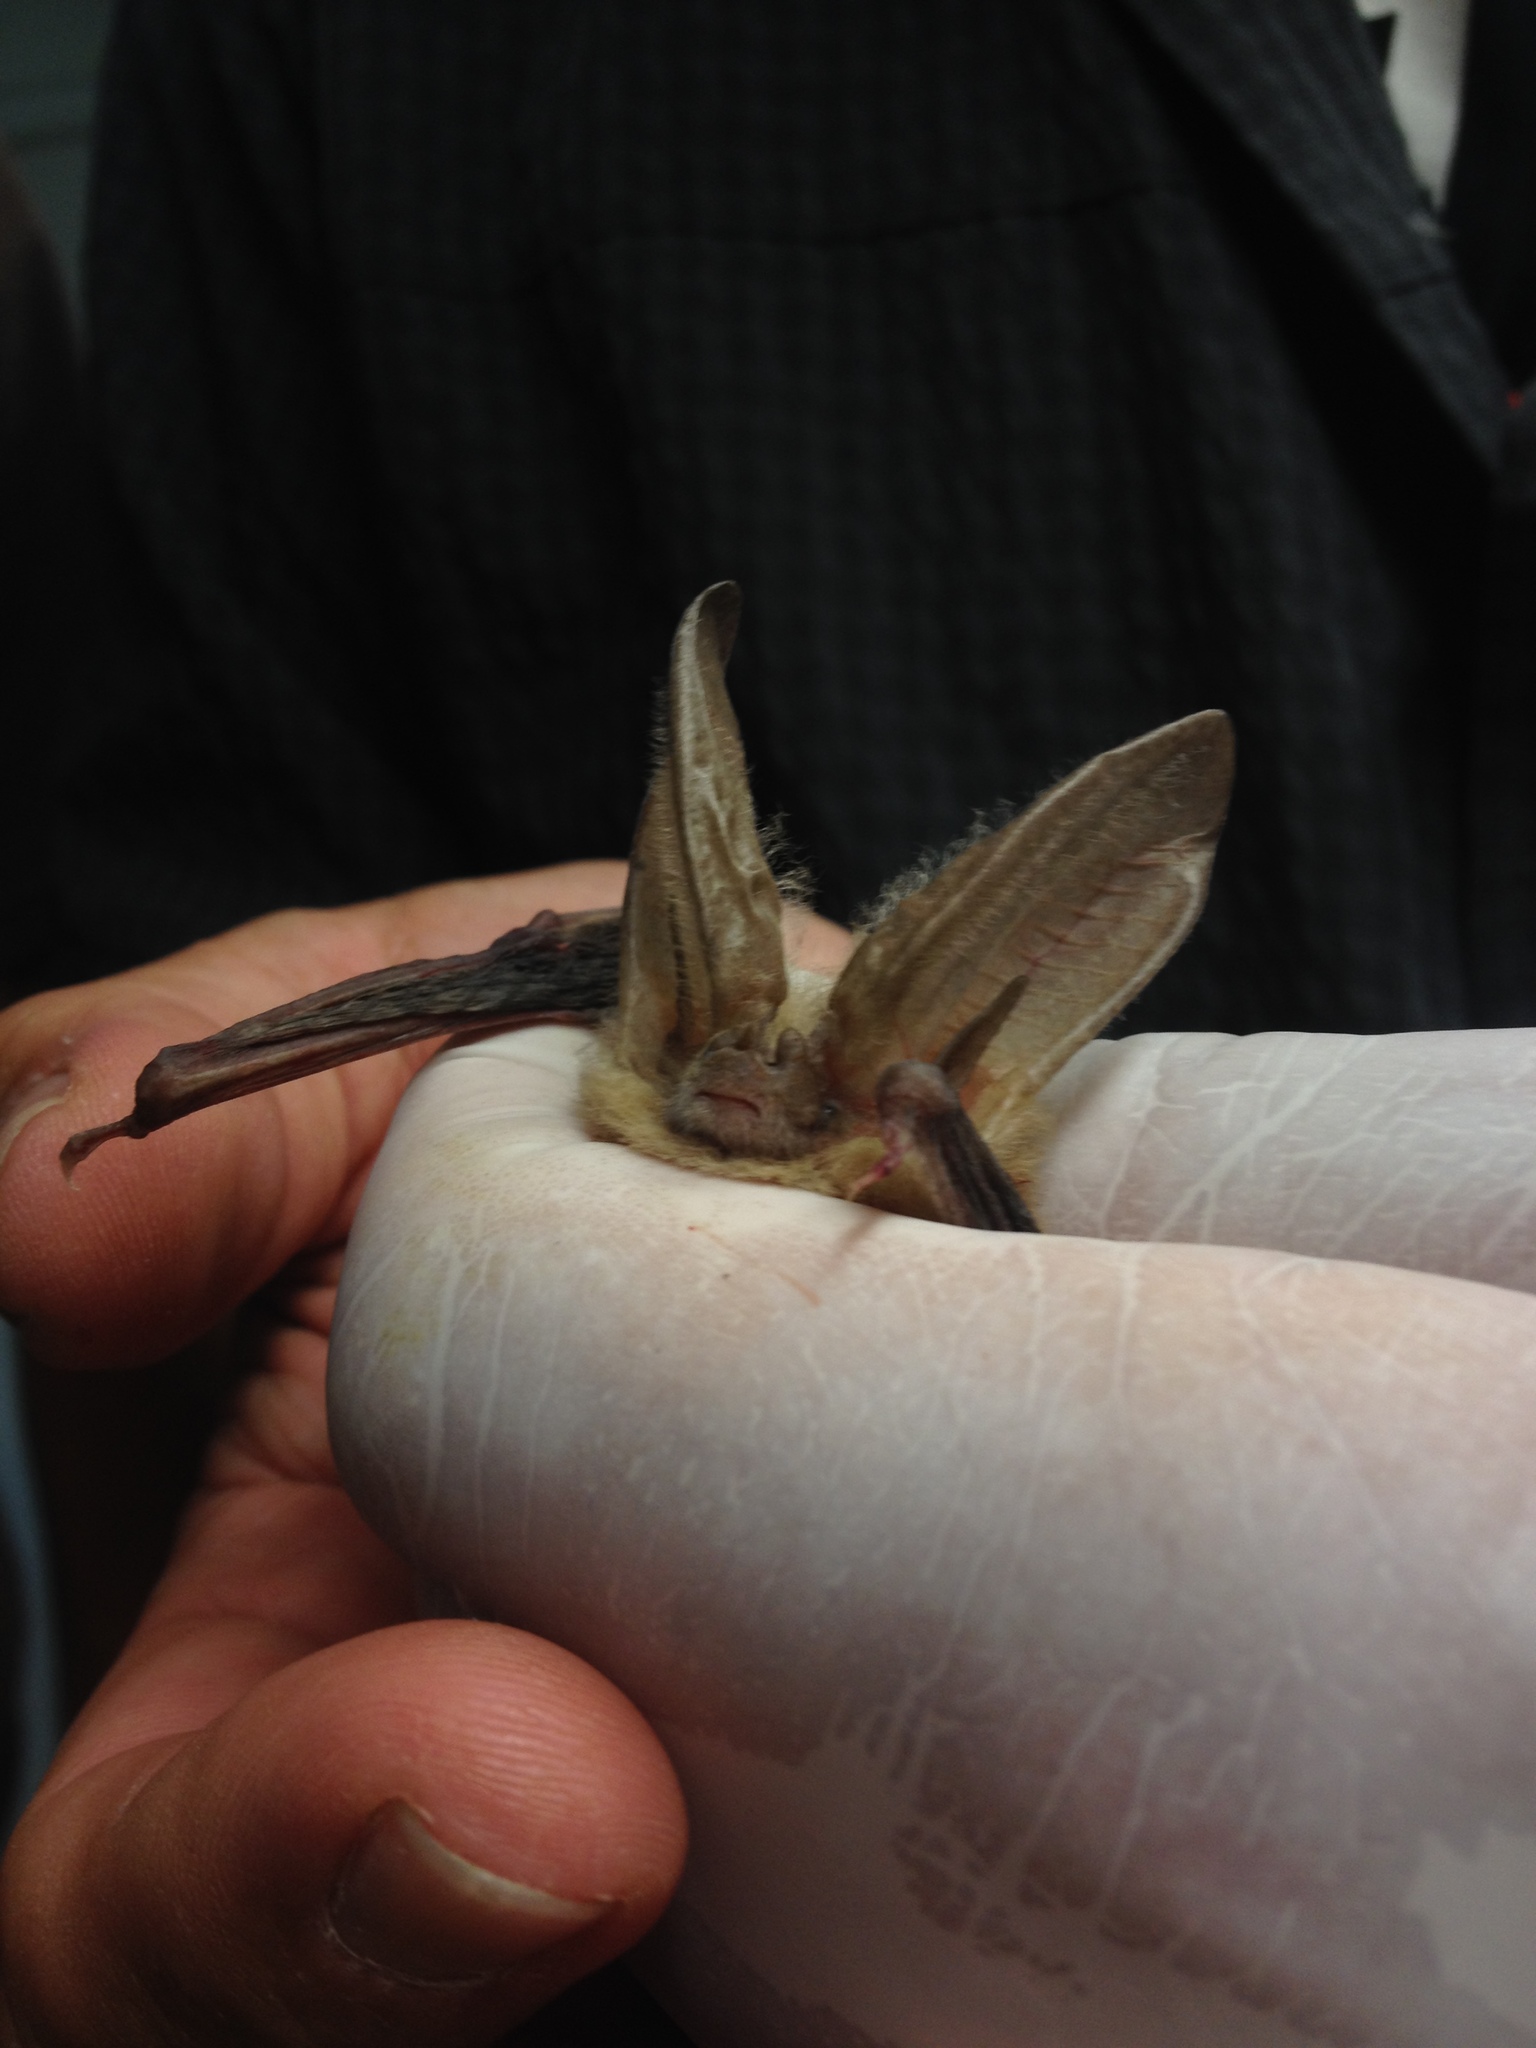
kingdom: Animalia
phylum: Chordata
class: Mammalia
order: Chiroptera
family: Vespertilionidae
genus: Corynorhinus
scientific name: Corynorhinus townsendii
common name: Townsend's big-eared bat
